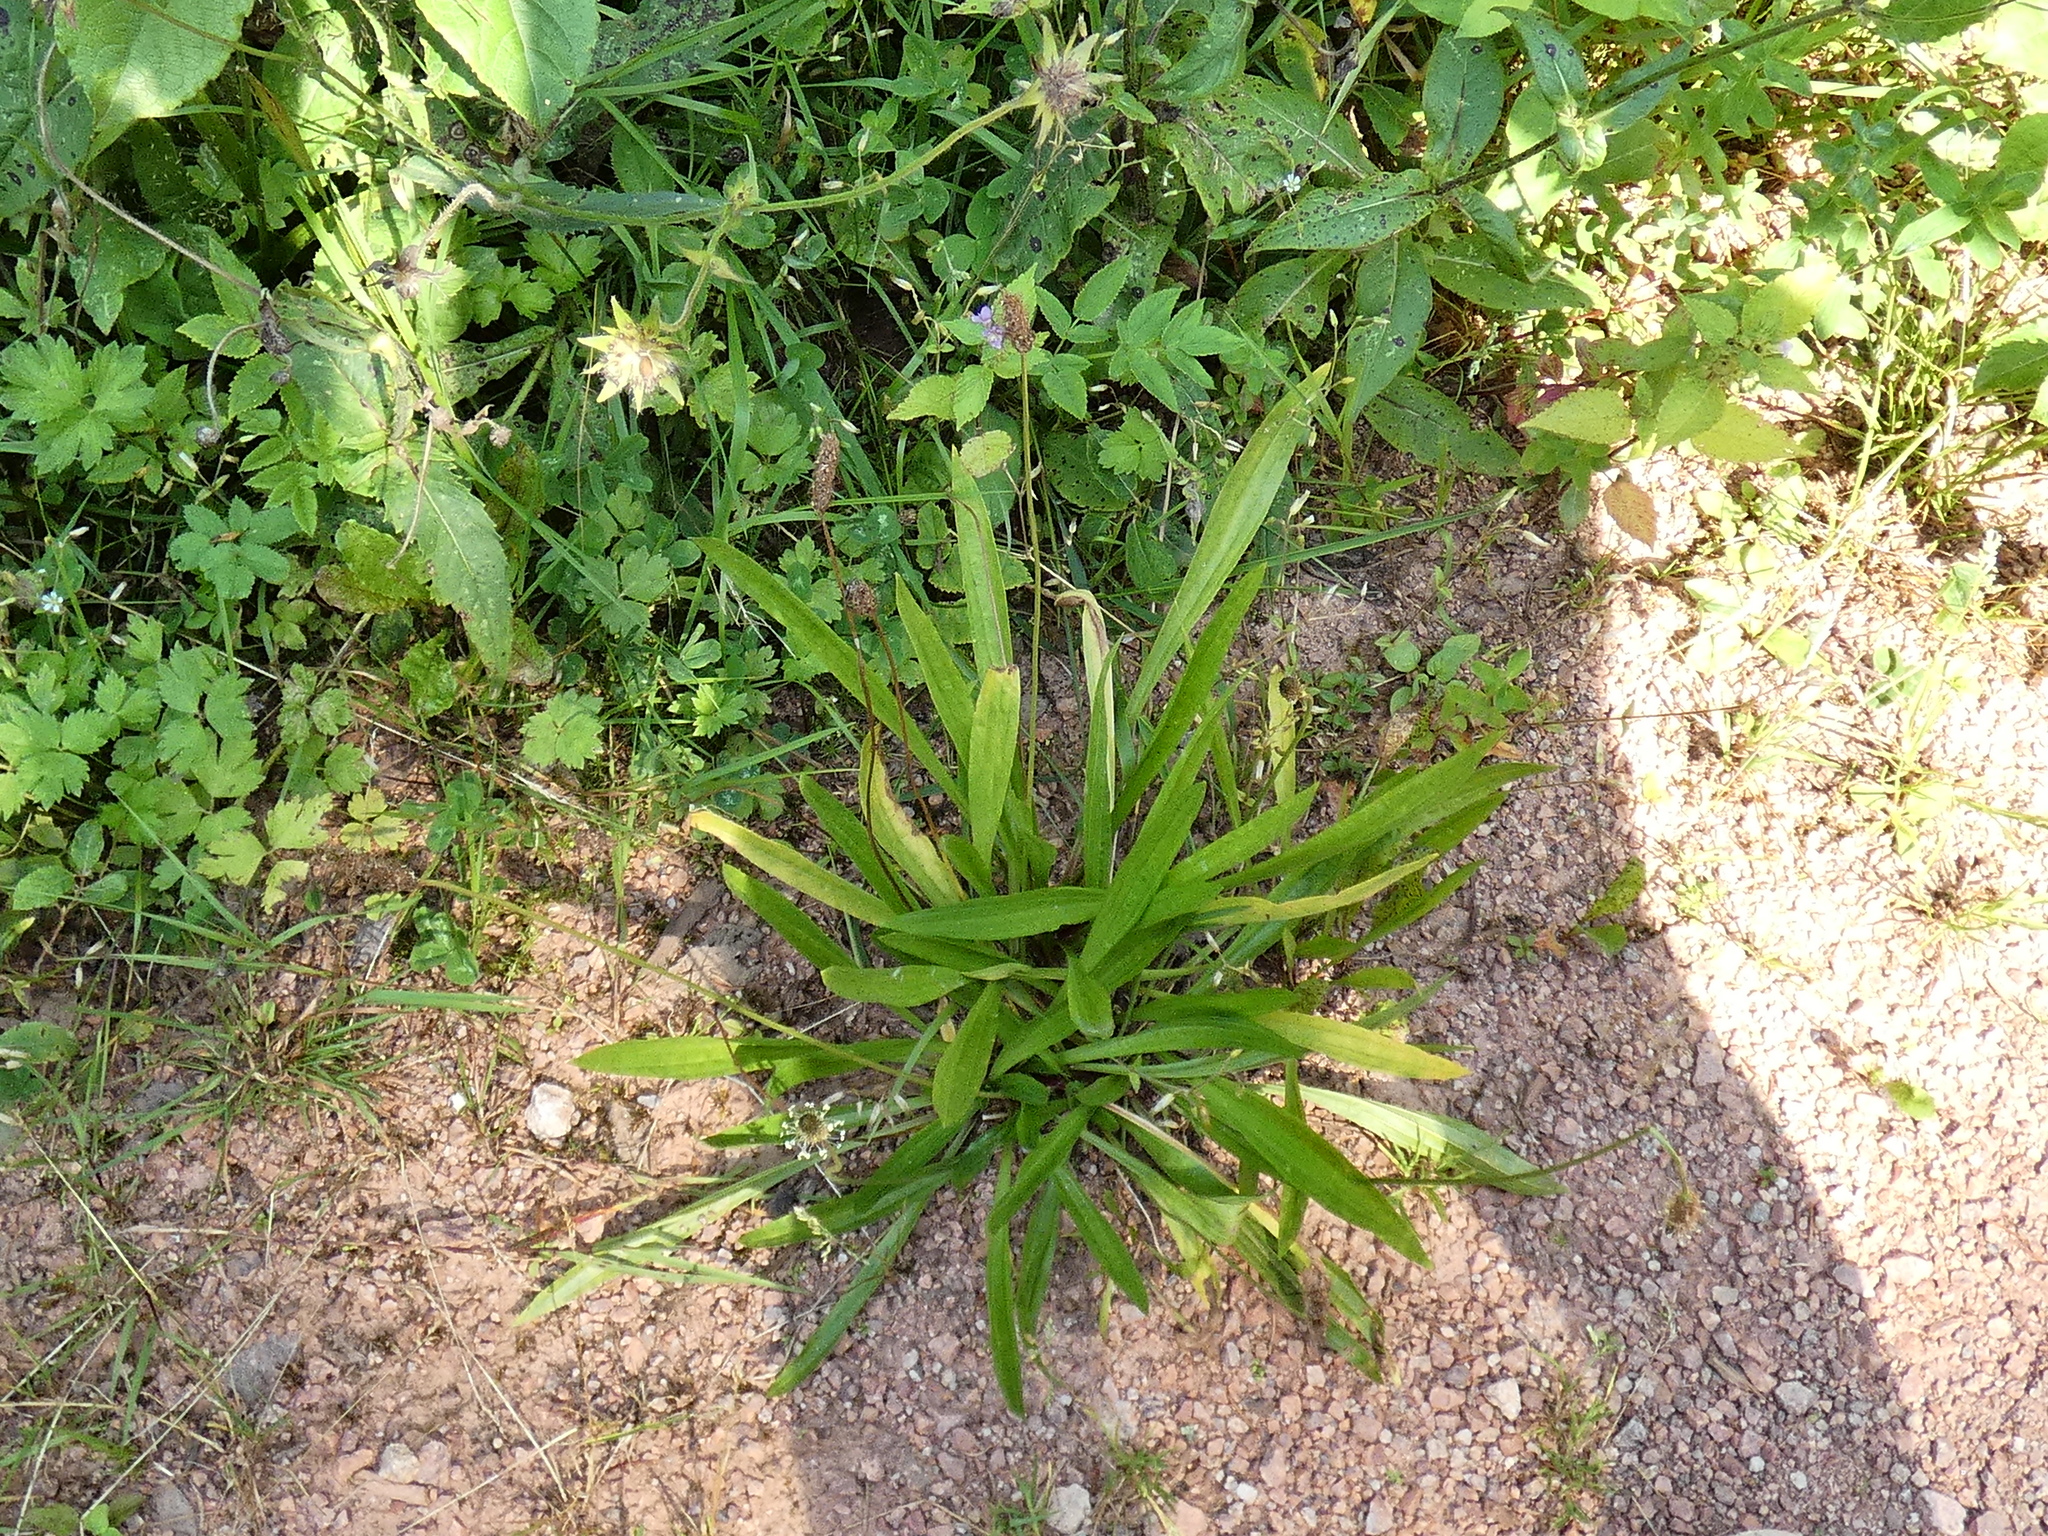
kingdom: Plantae
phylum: Tracheophyta
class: Magnoliopsida
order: Lamiales
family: Plantaginaceae
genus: Plantago
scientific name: Plantago lanceolata
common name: Ribwort plantain
